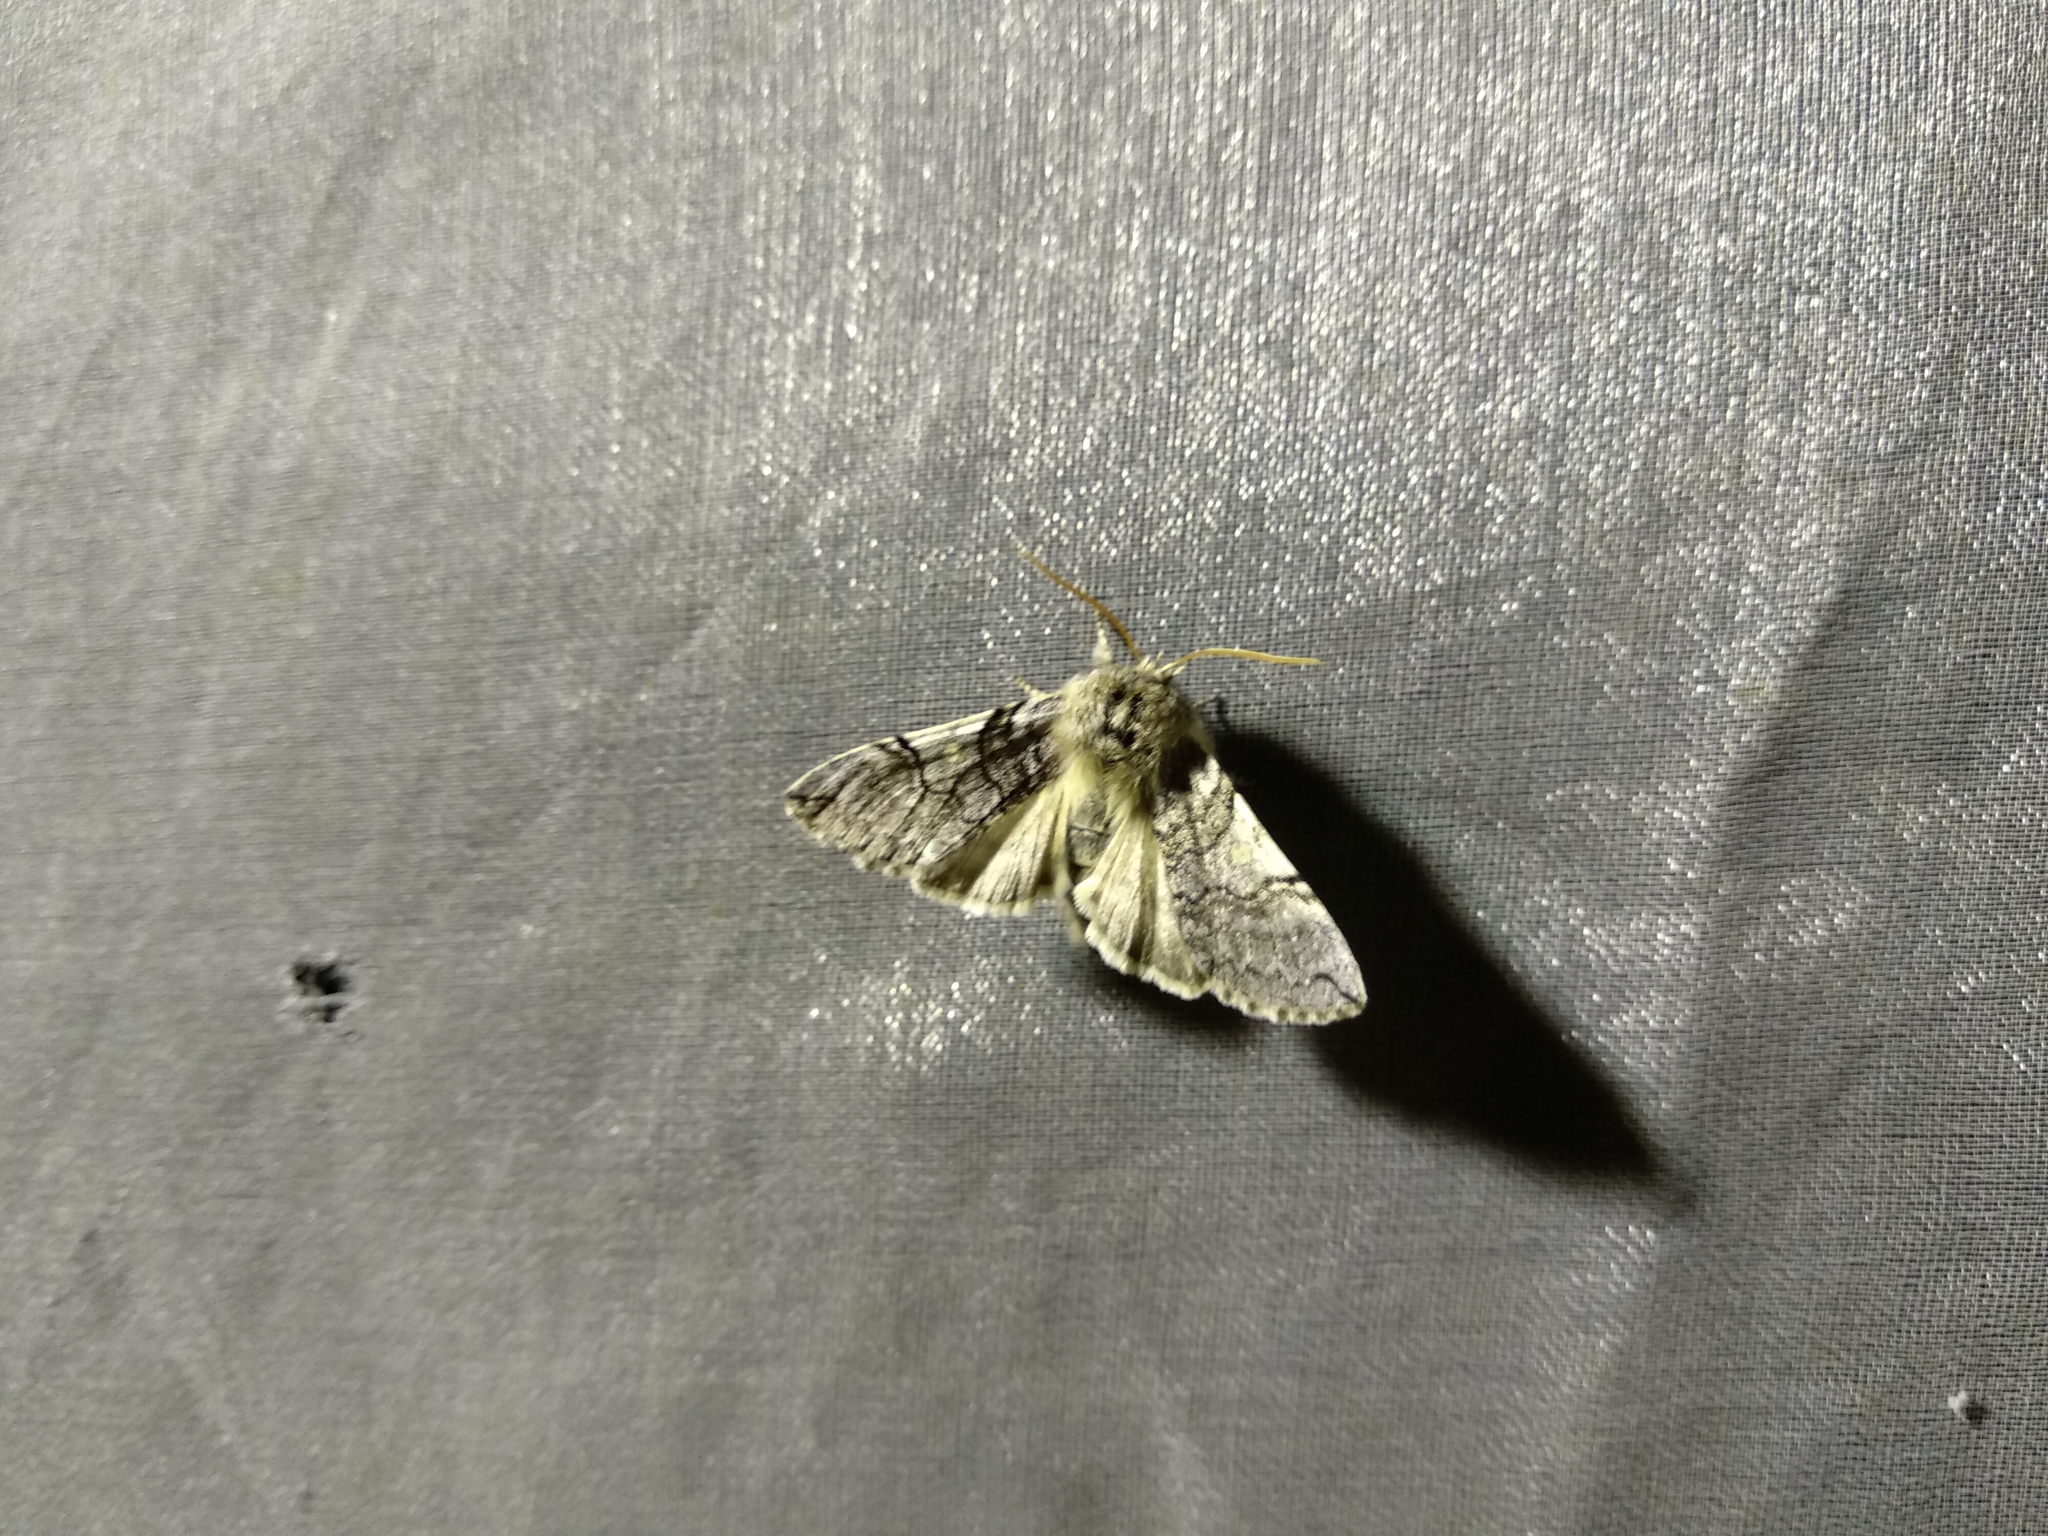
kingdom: Animalia
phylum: Arthropoda
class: Insecta
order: Lepidoptera
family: Drepanidae
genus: Achlya
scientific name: Achlya flavicornis
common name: Yellow horned
